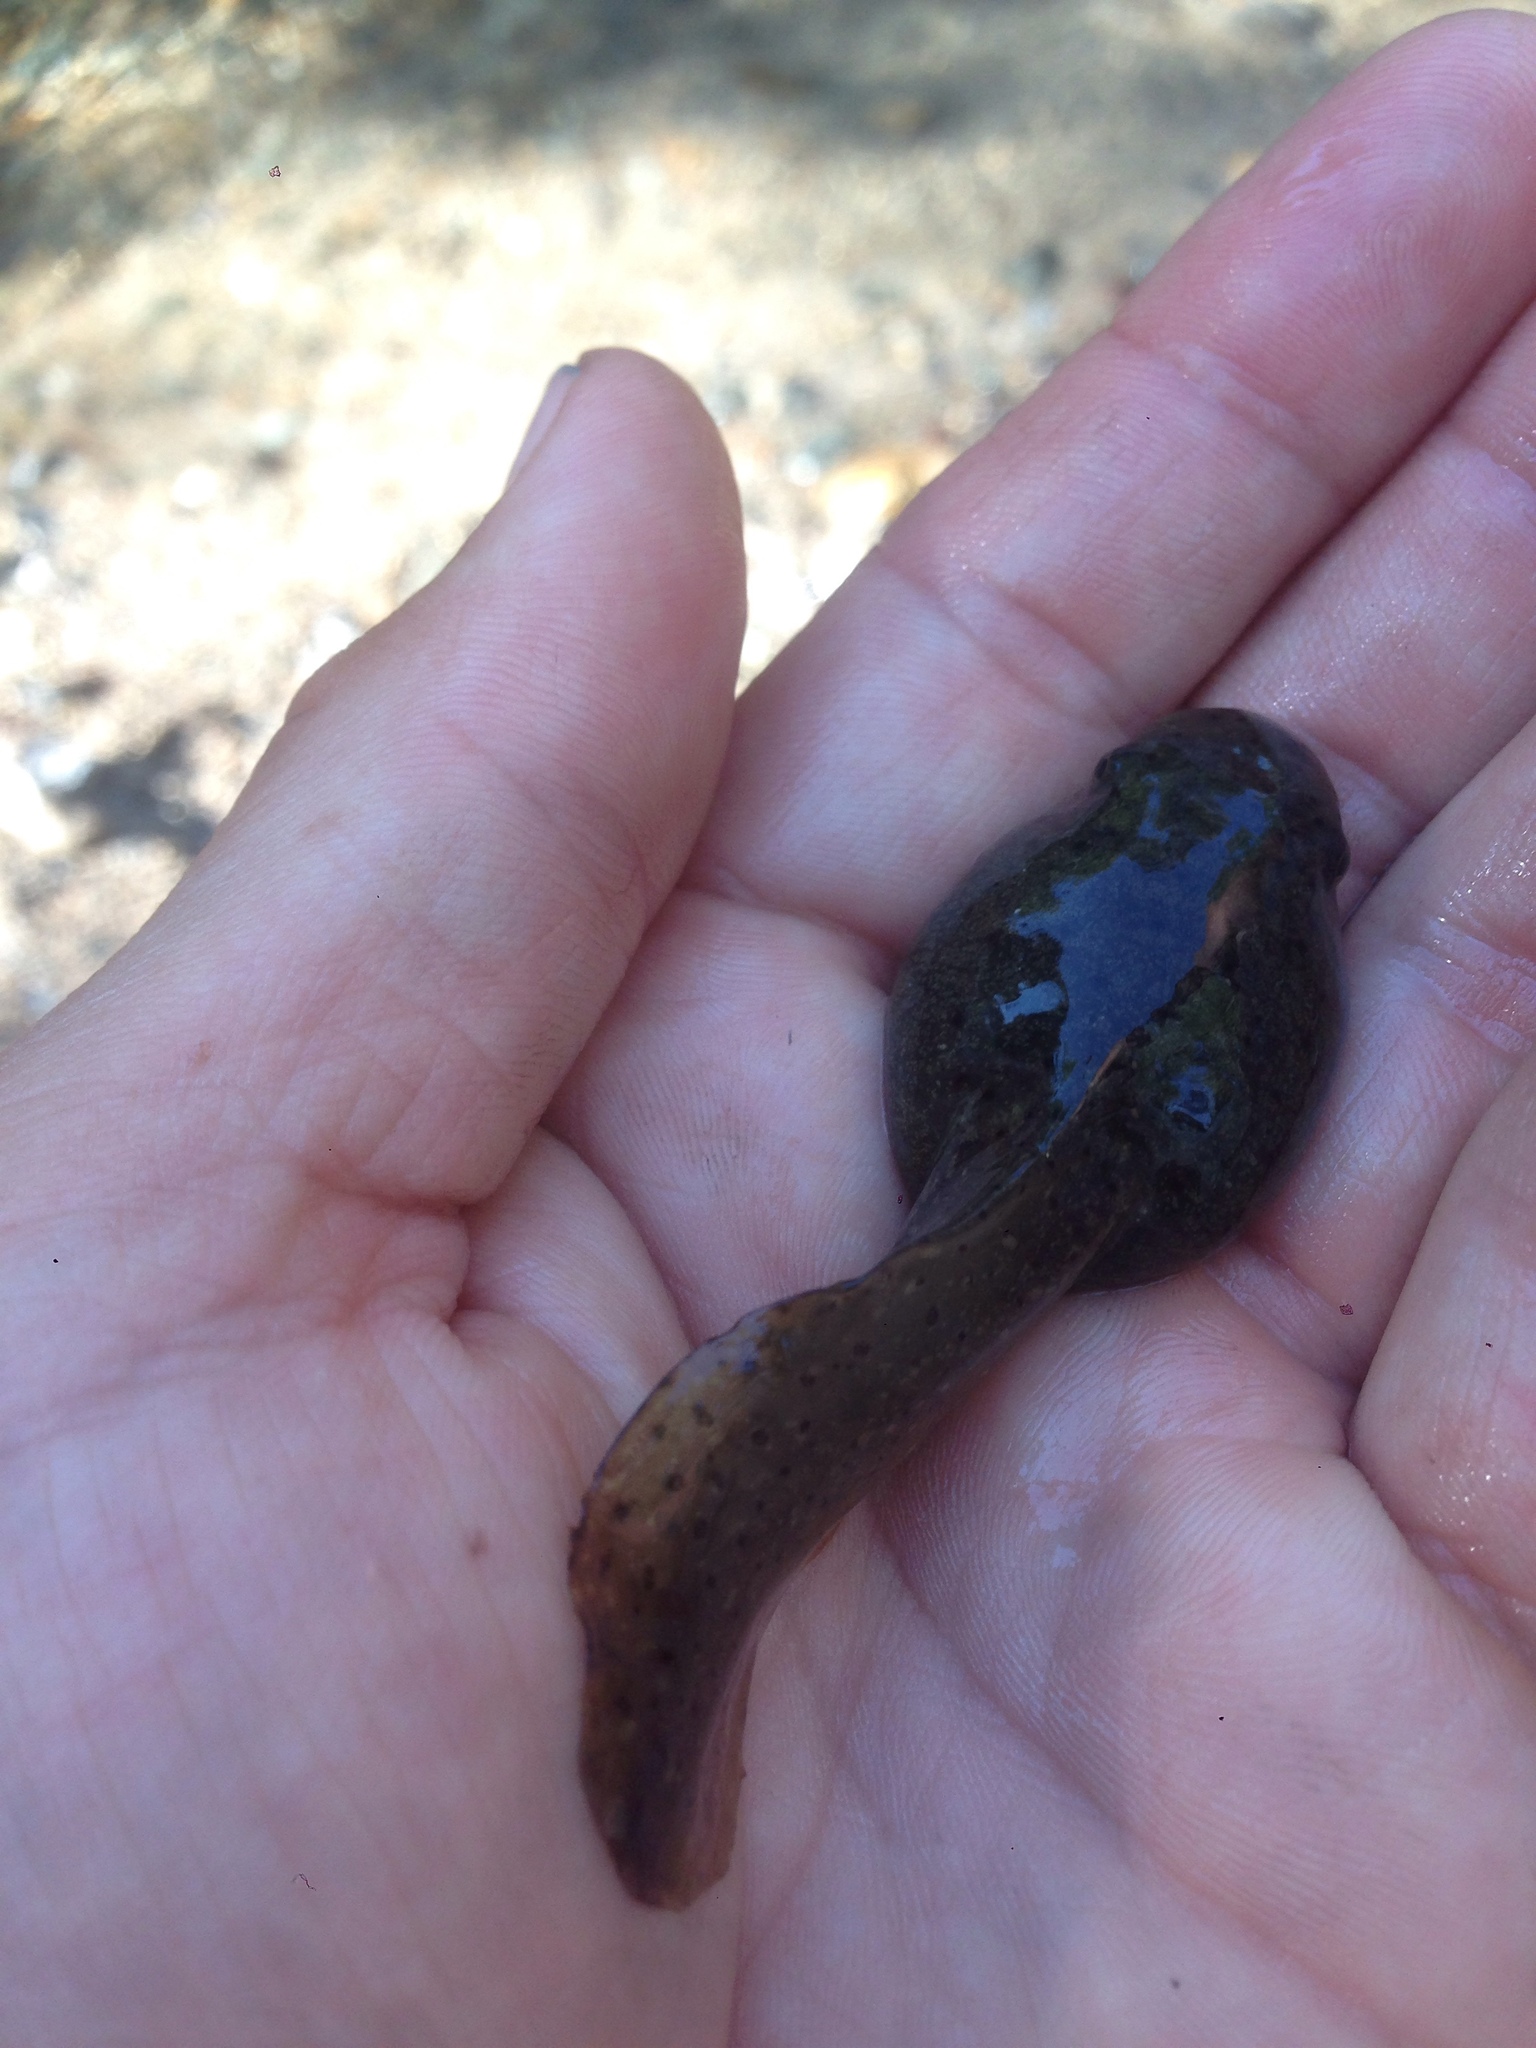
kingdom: Animalia
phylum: Chordata
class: Amphibia
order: Anura
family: Ranidae
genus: Lithobates
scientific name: Lithobates catesbeianus
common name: American bullfrog
